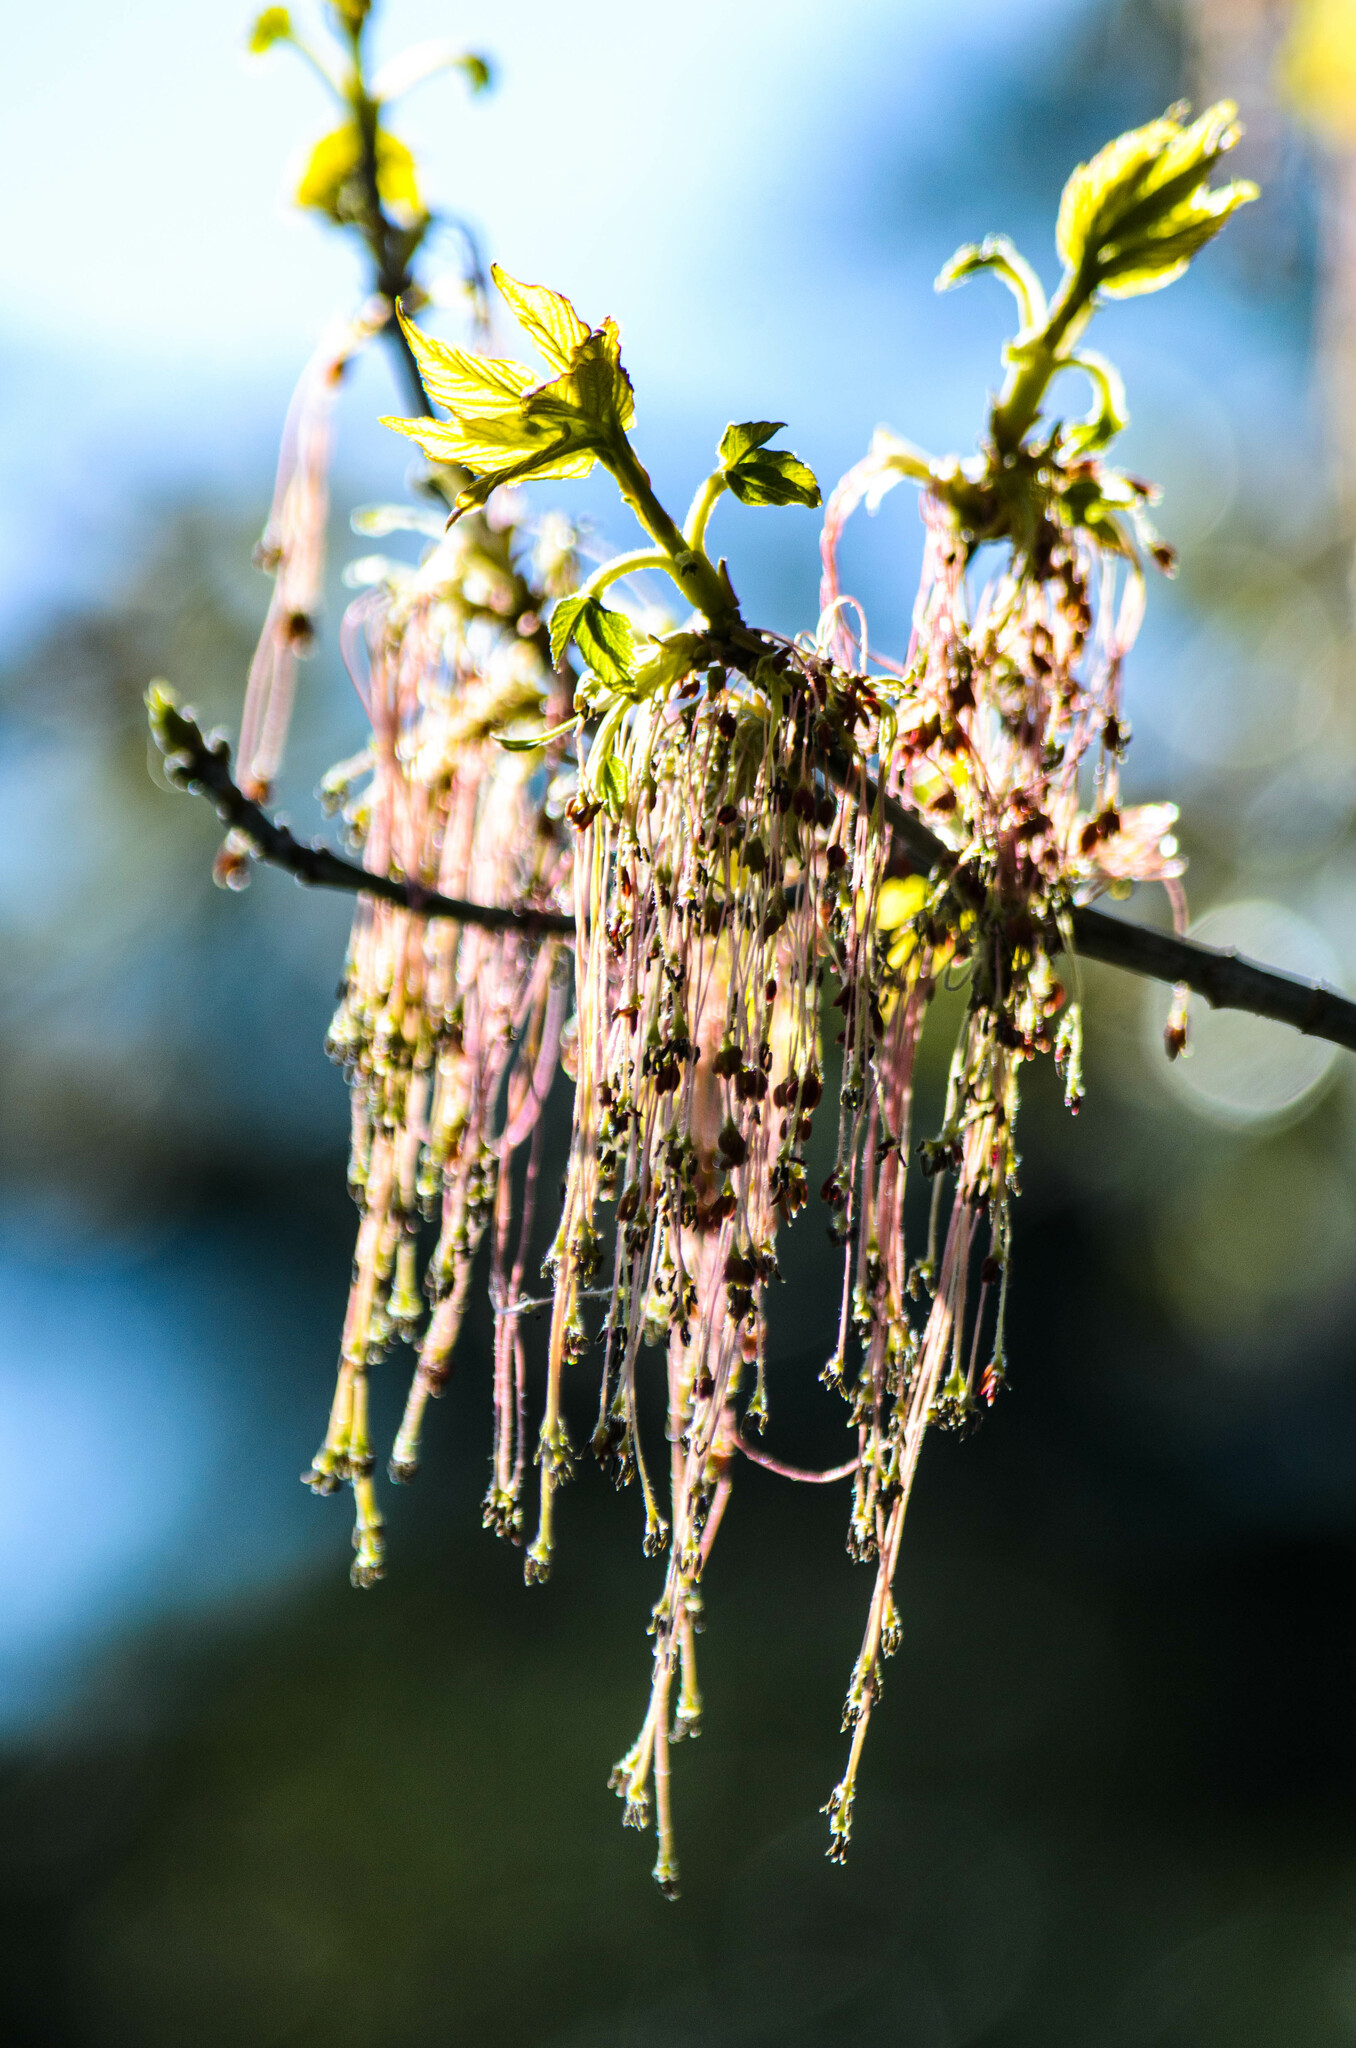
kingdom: Plantae
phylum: Tracheophyta
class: Magnoliopsida
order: Sapindales
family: Sapindaceae
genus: Acer
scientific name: Acer negundo
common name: Ashleaf maple
